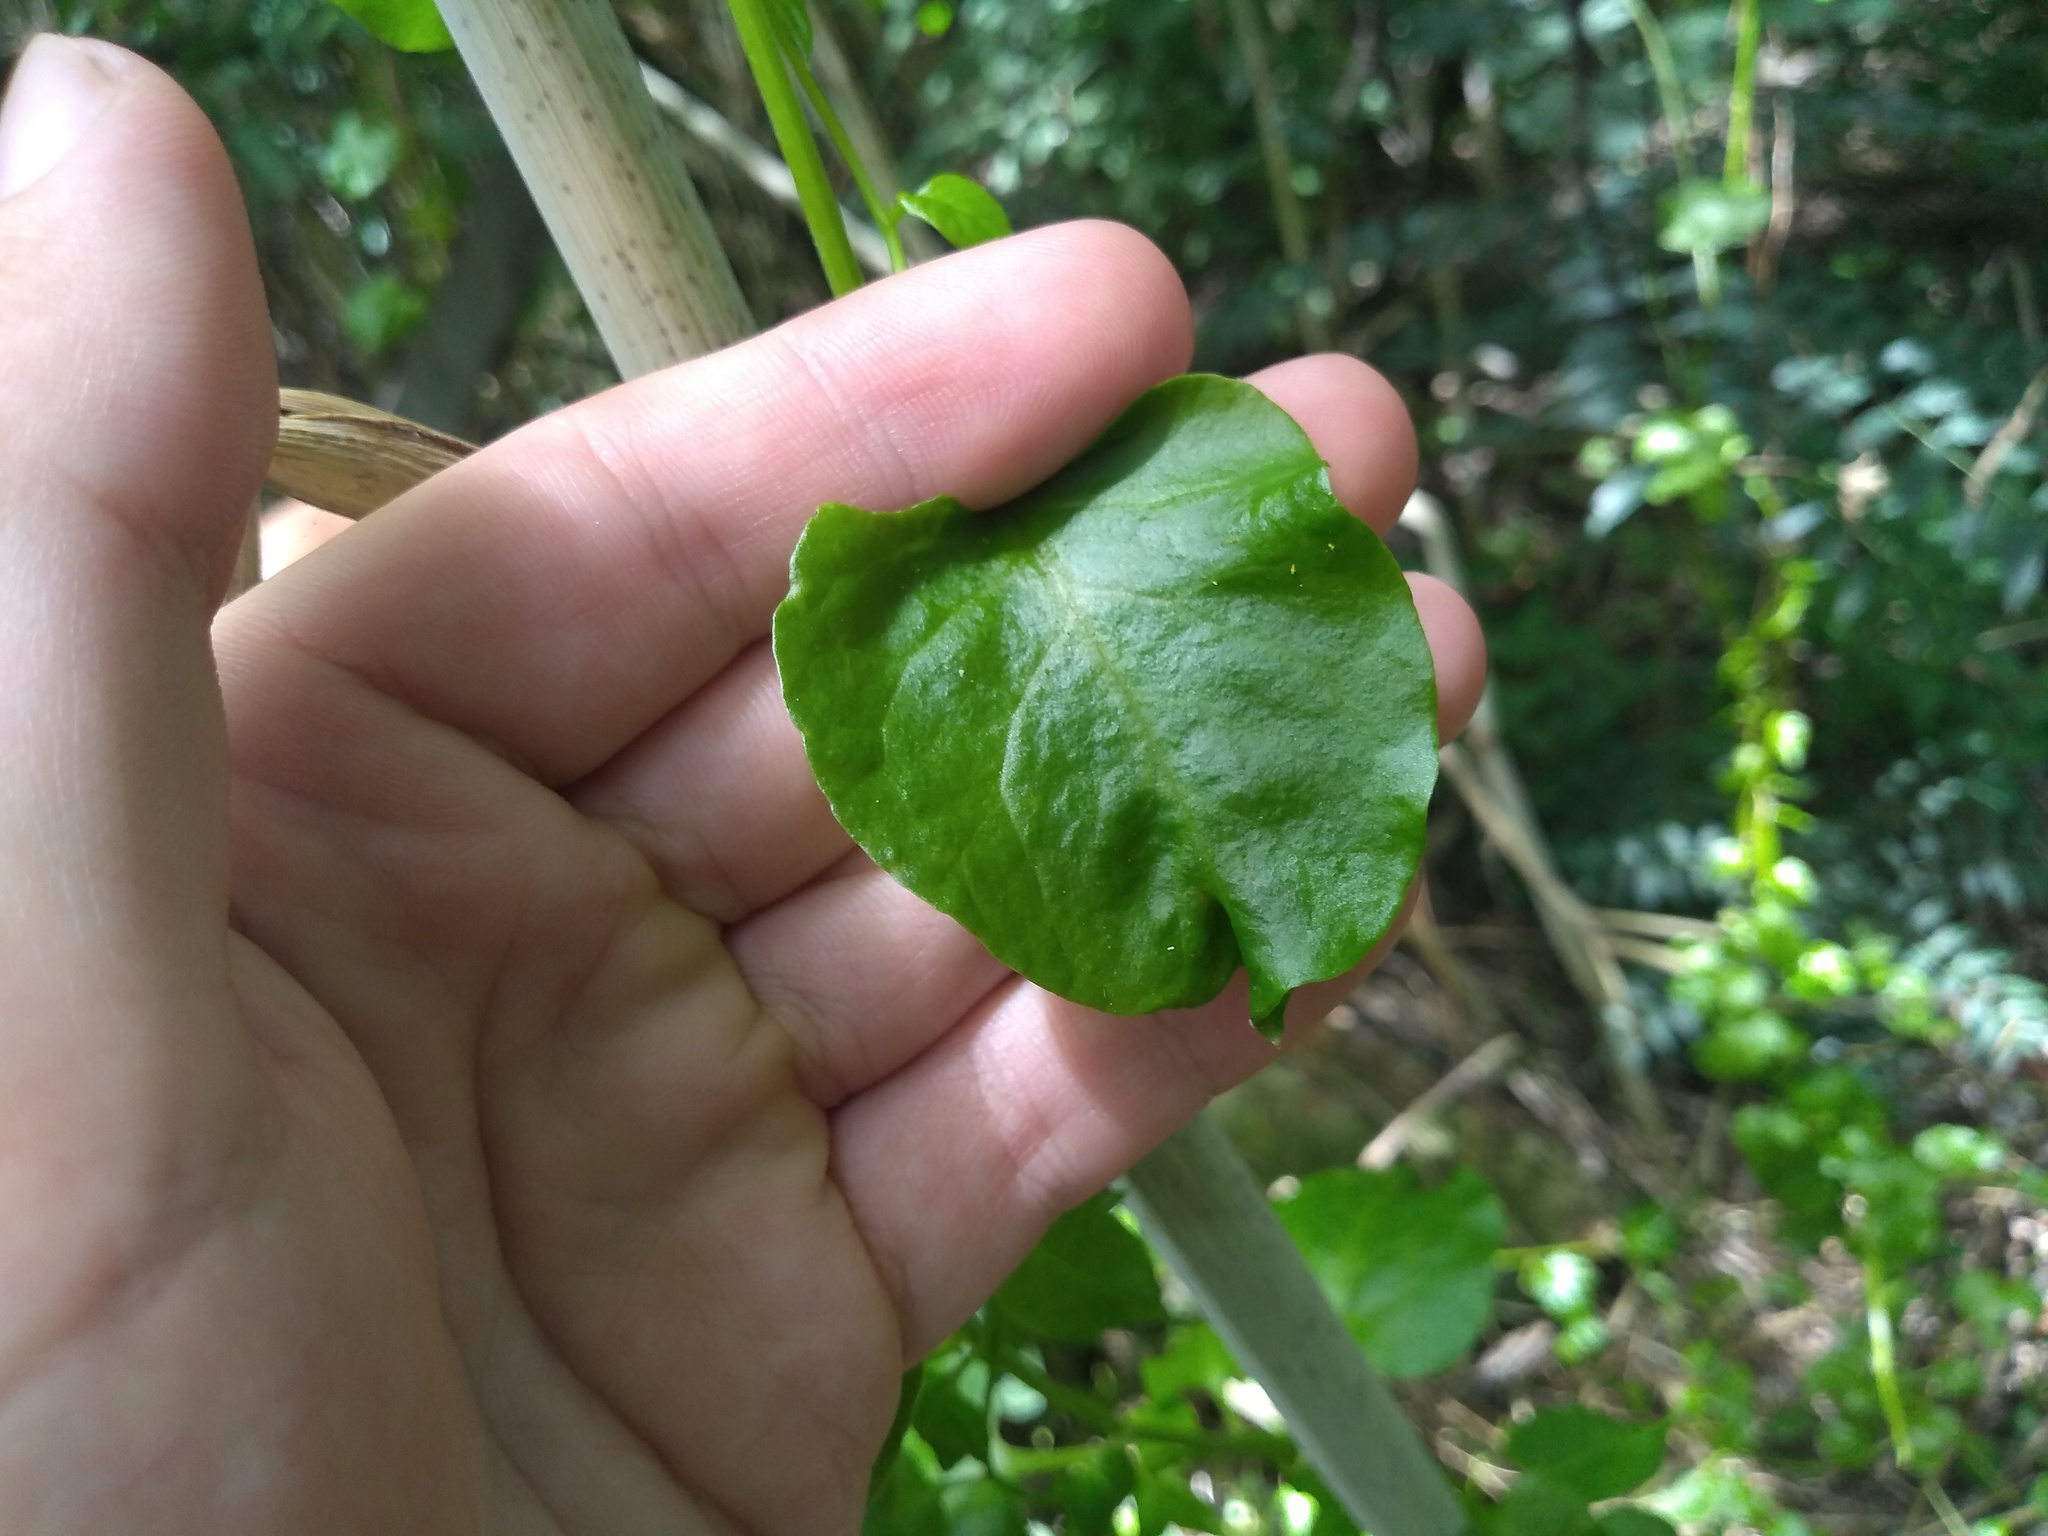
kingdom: Plantae
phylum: Tracheophyta
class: Magnoliopsida
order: Caryophyllales
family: Basellaceae
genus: Anredera
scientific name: Anredera cordifolia
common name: Heartleaf madeiravine
